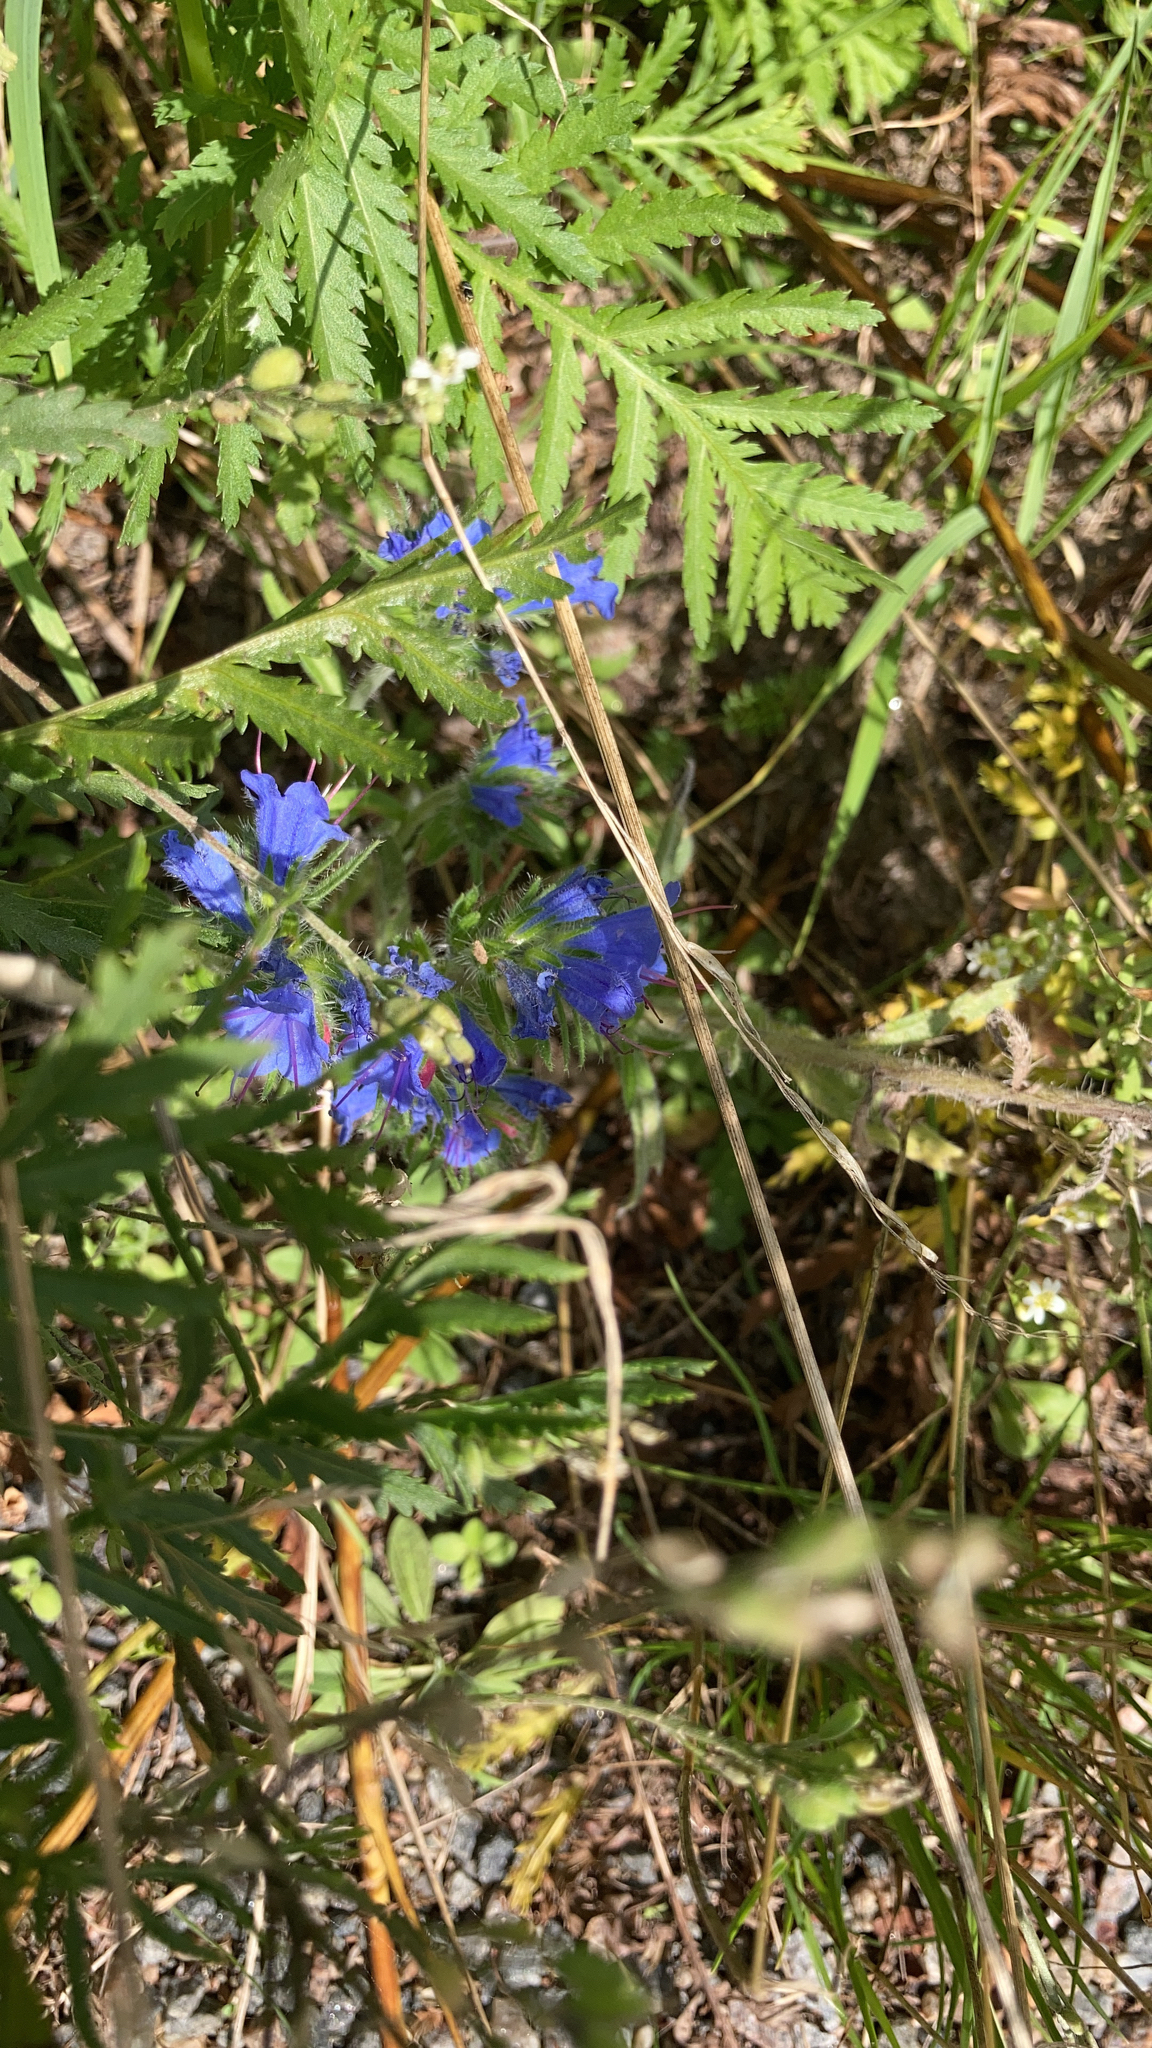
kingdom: Plantae
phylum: Tracheophyta
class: Magnoliopsida
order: Boraginales
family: Boraginaceae
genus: Echium
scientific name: Echium vulgare
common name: Common viper's bugloss
